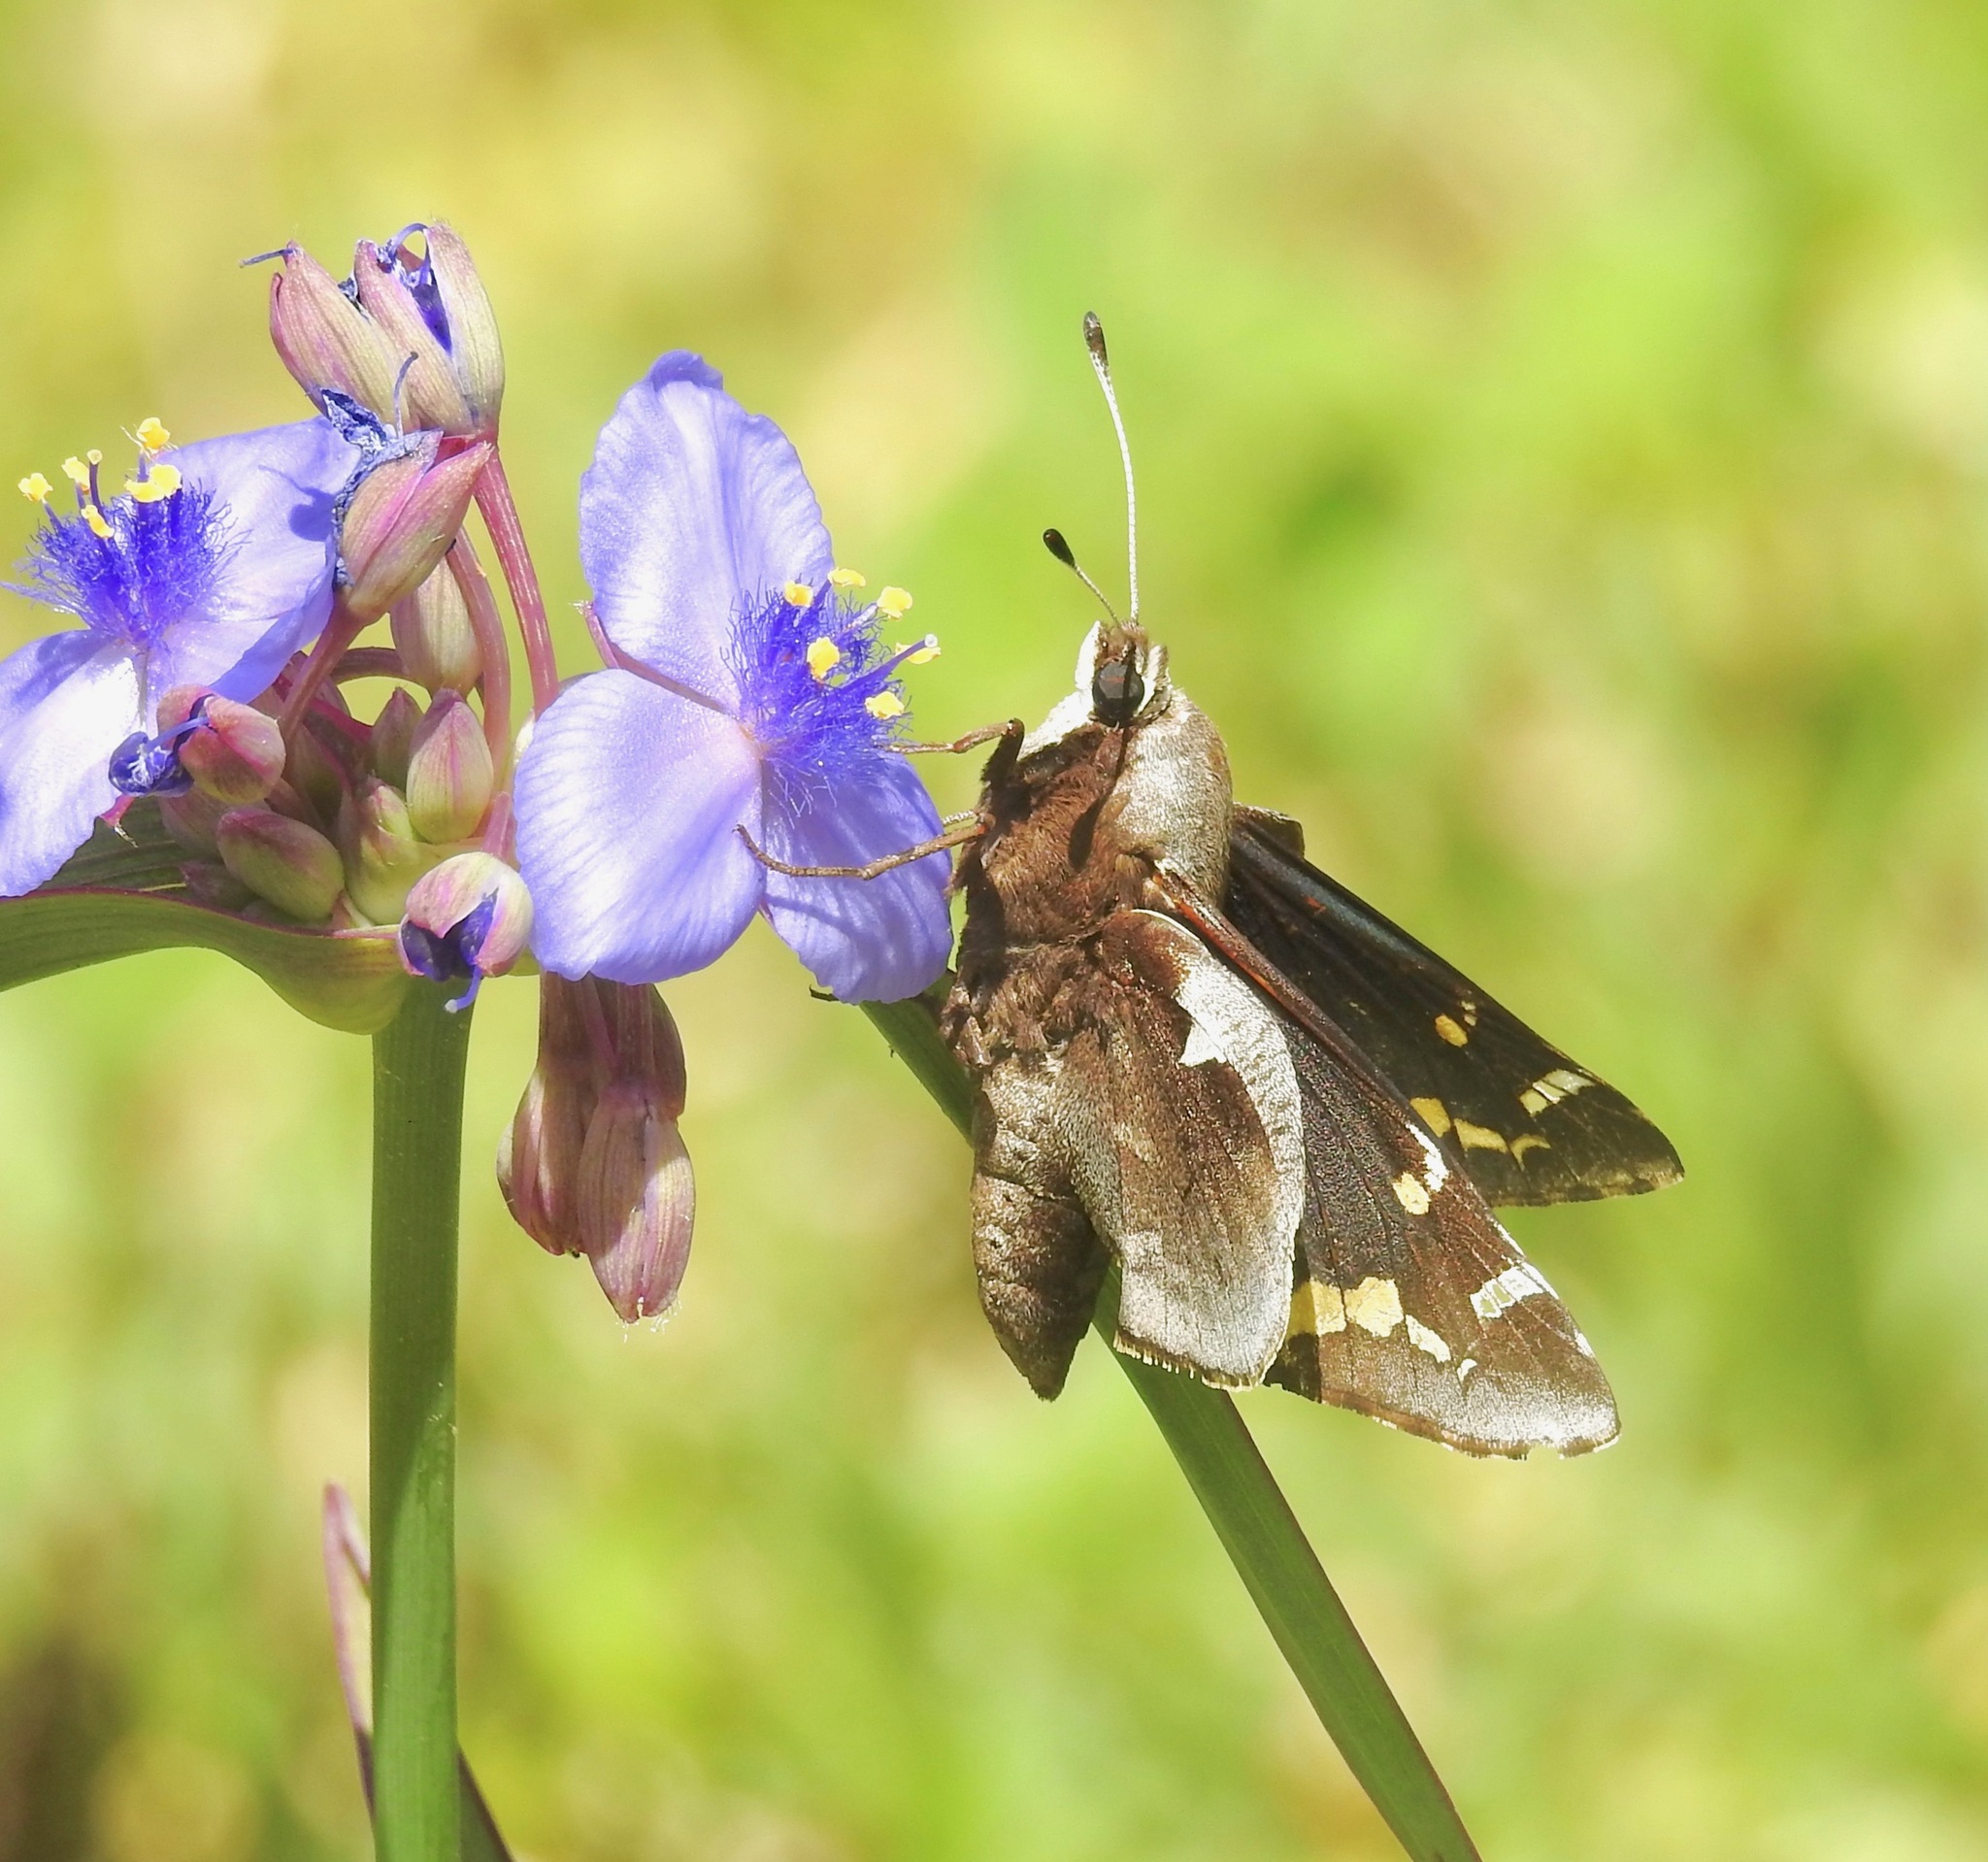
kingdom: Animalia
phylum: Arthropoda
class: Insecta
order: Lepidoptera
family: Hesperiidae
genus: Megathymus
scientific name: Megathymus yuccae
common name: Yucca giant-skipper
